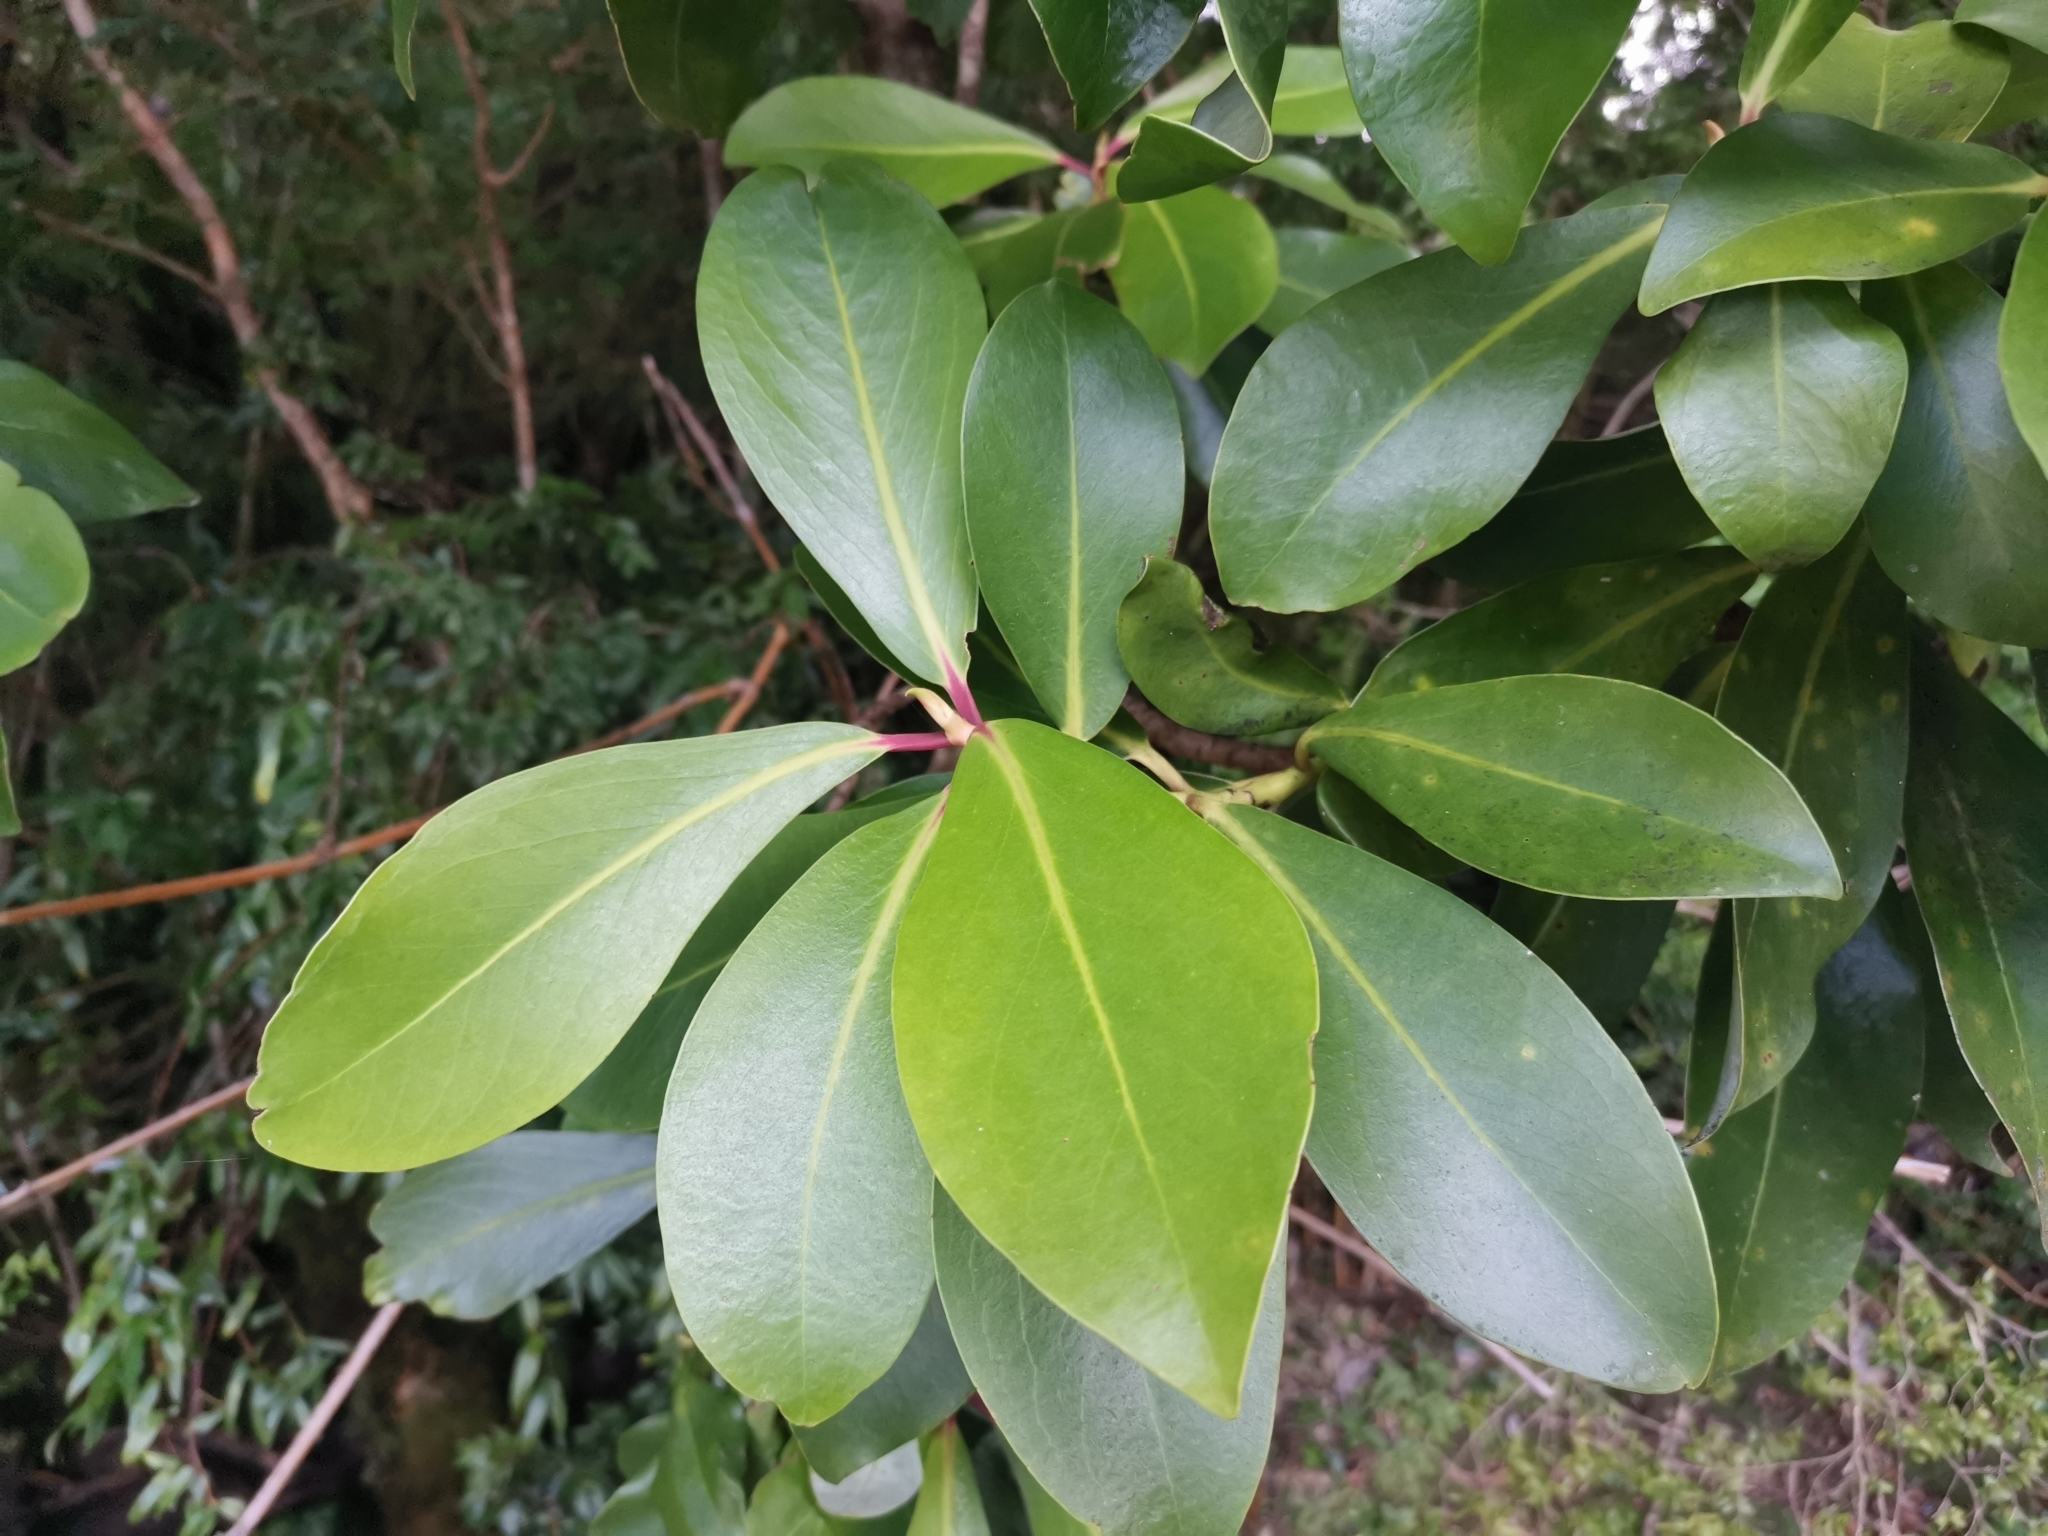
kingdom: Plantae
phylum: Tracheophyta
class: Magnoliopsida
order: Canellales
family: Winteraceae
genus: Drimys
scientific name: Drimys winteri
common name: Winter's-bark
